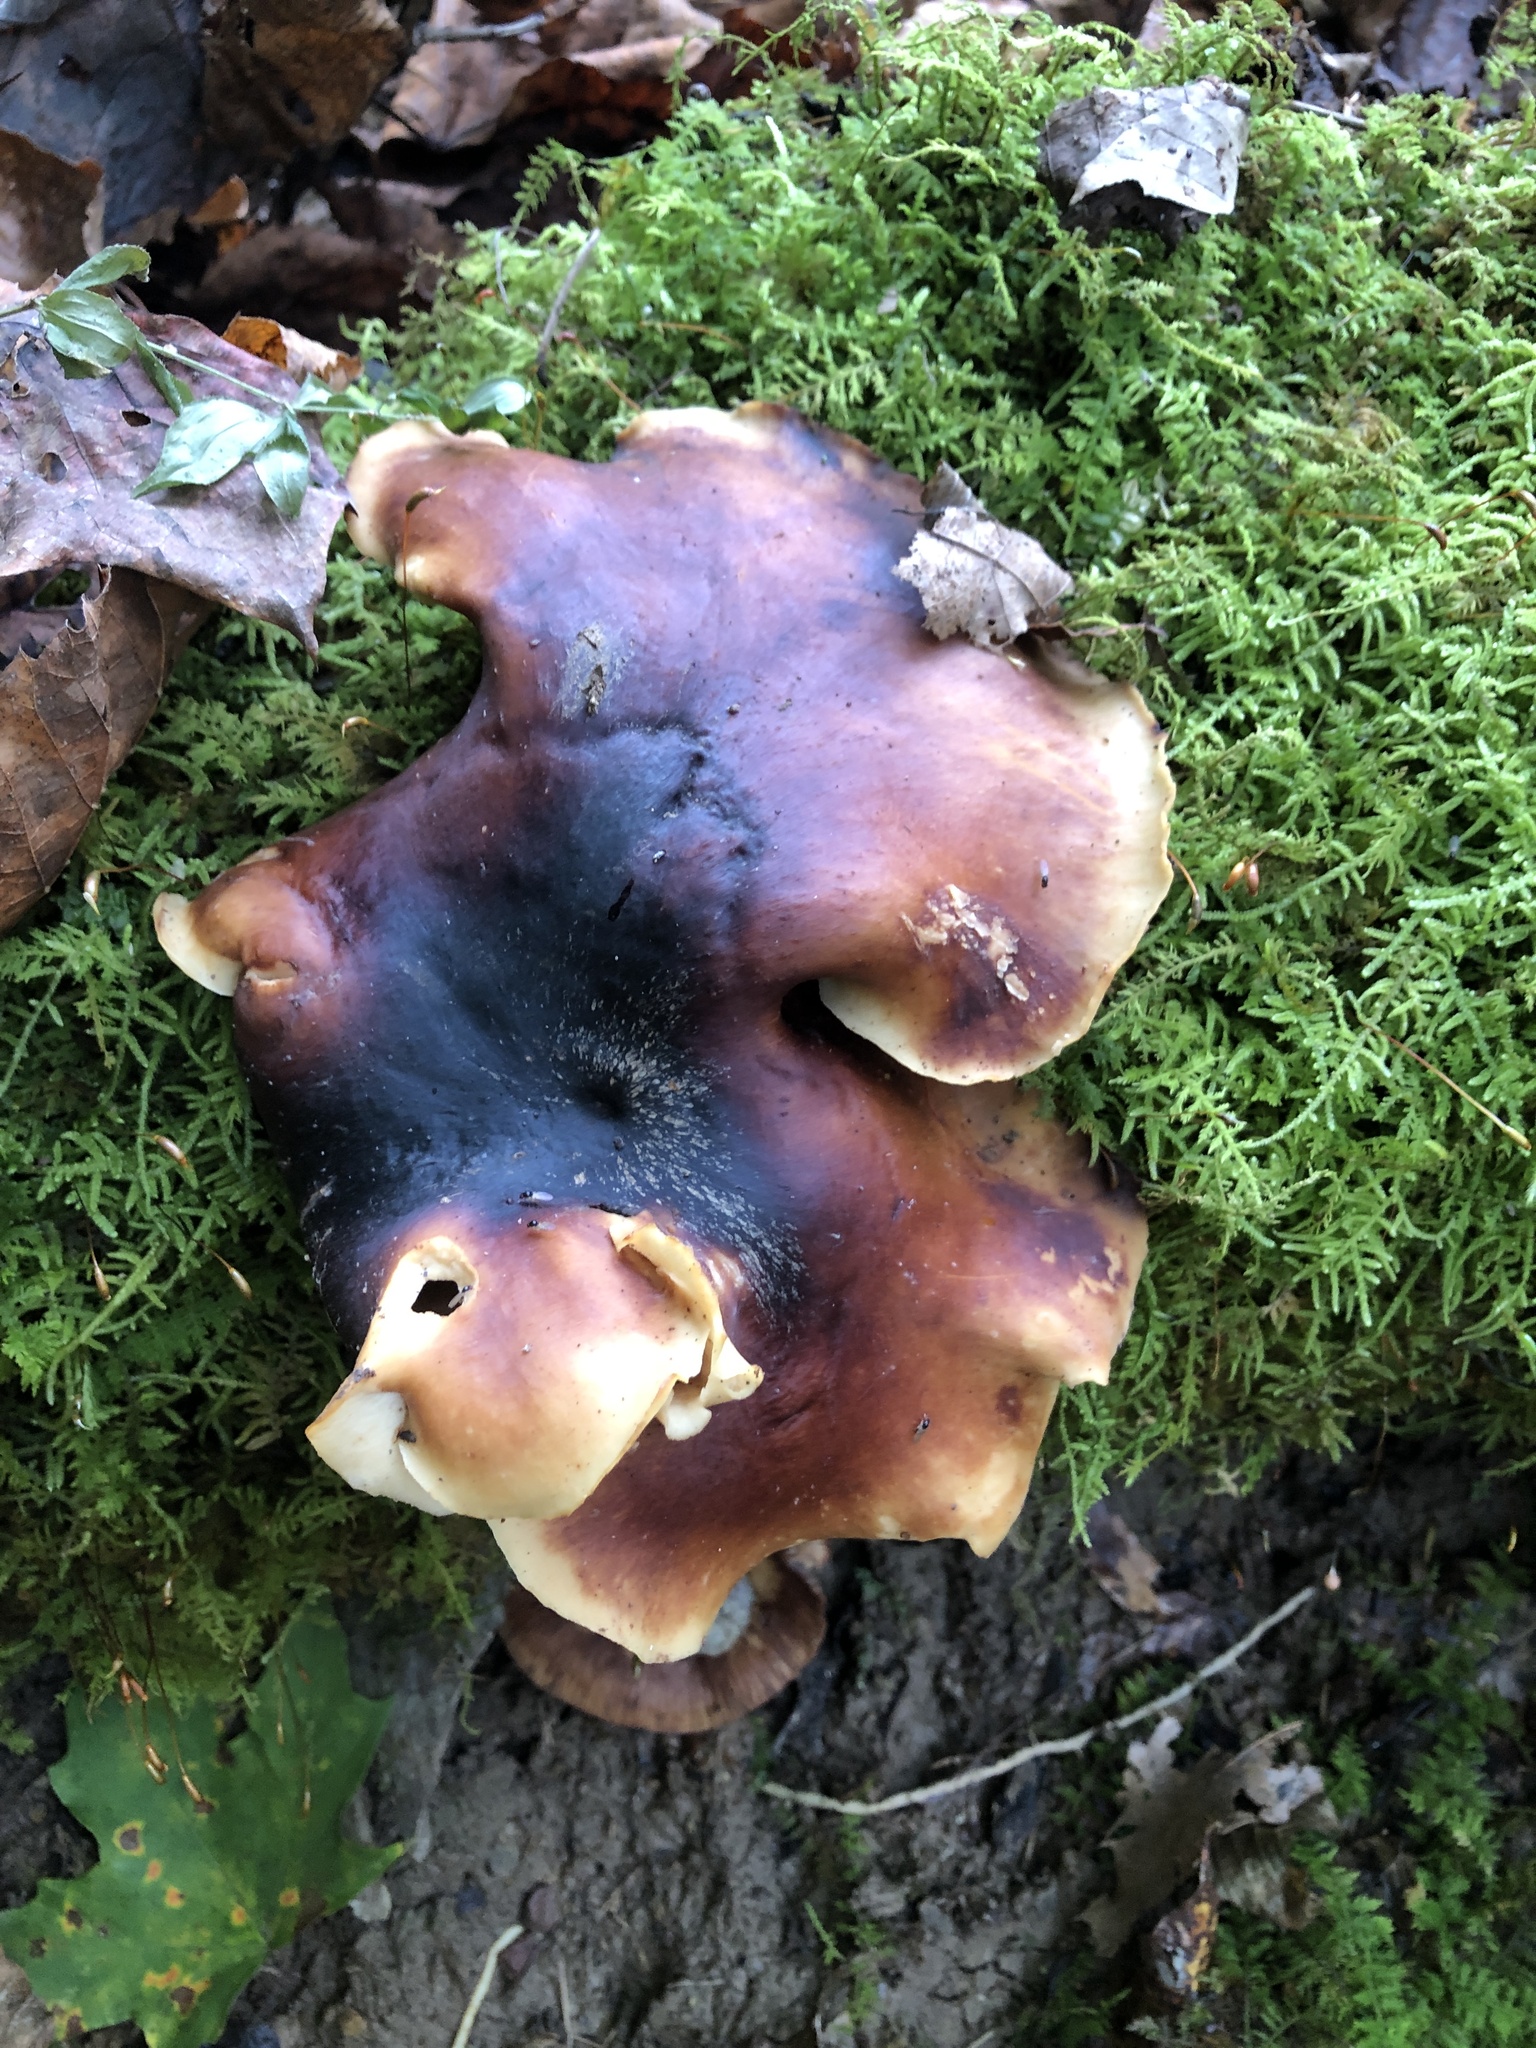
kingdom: Fungi
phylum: Basidiomycota
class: Agaricomycetes
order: Polyporales
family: Polyporaceae
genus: Picipes
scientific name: Picipes badius
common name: Bay polypore
